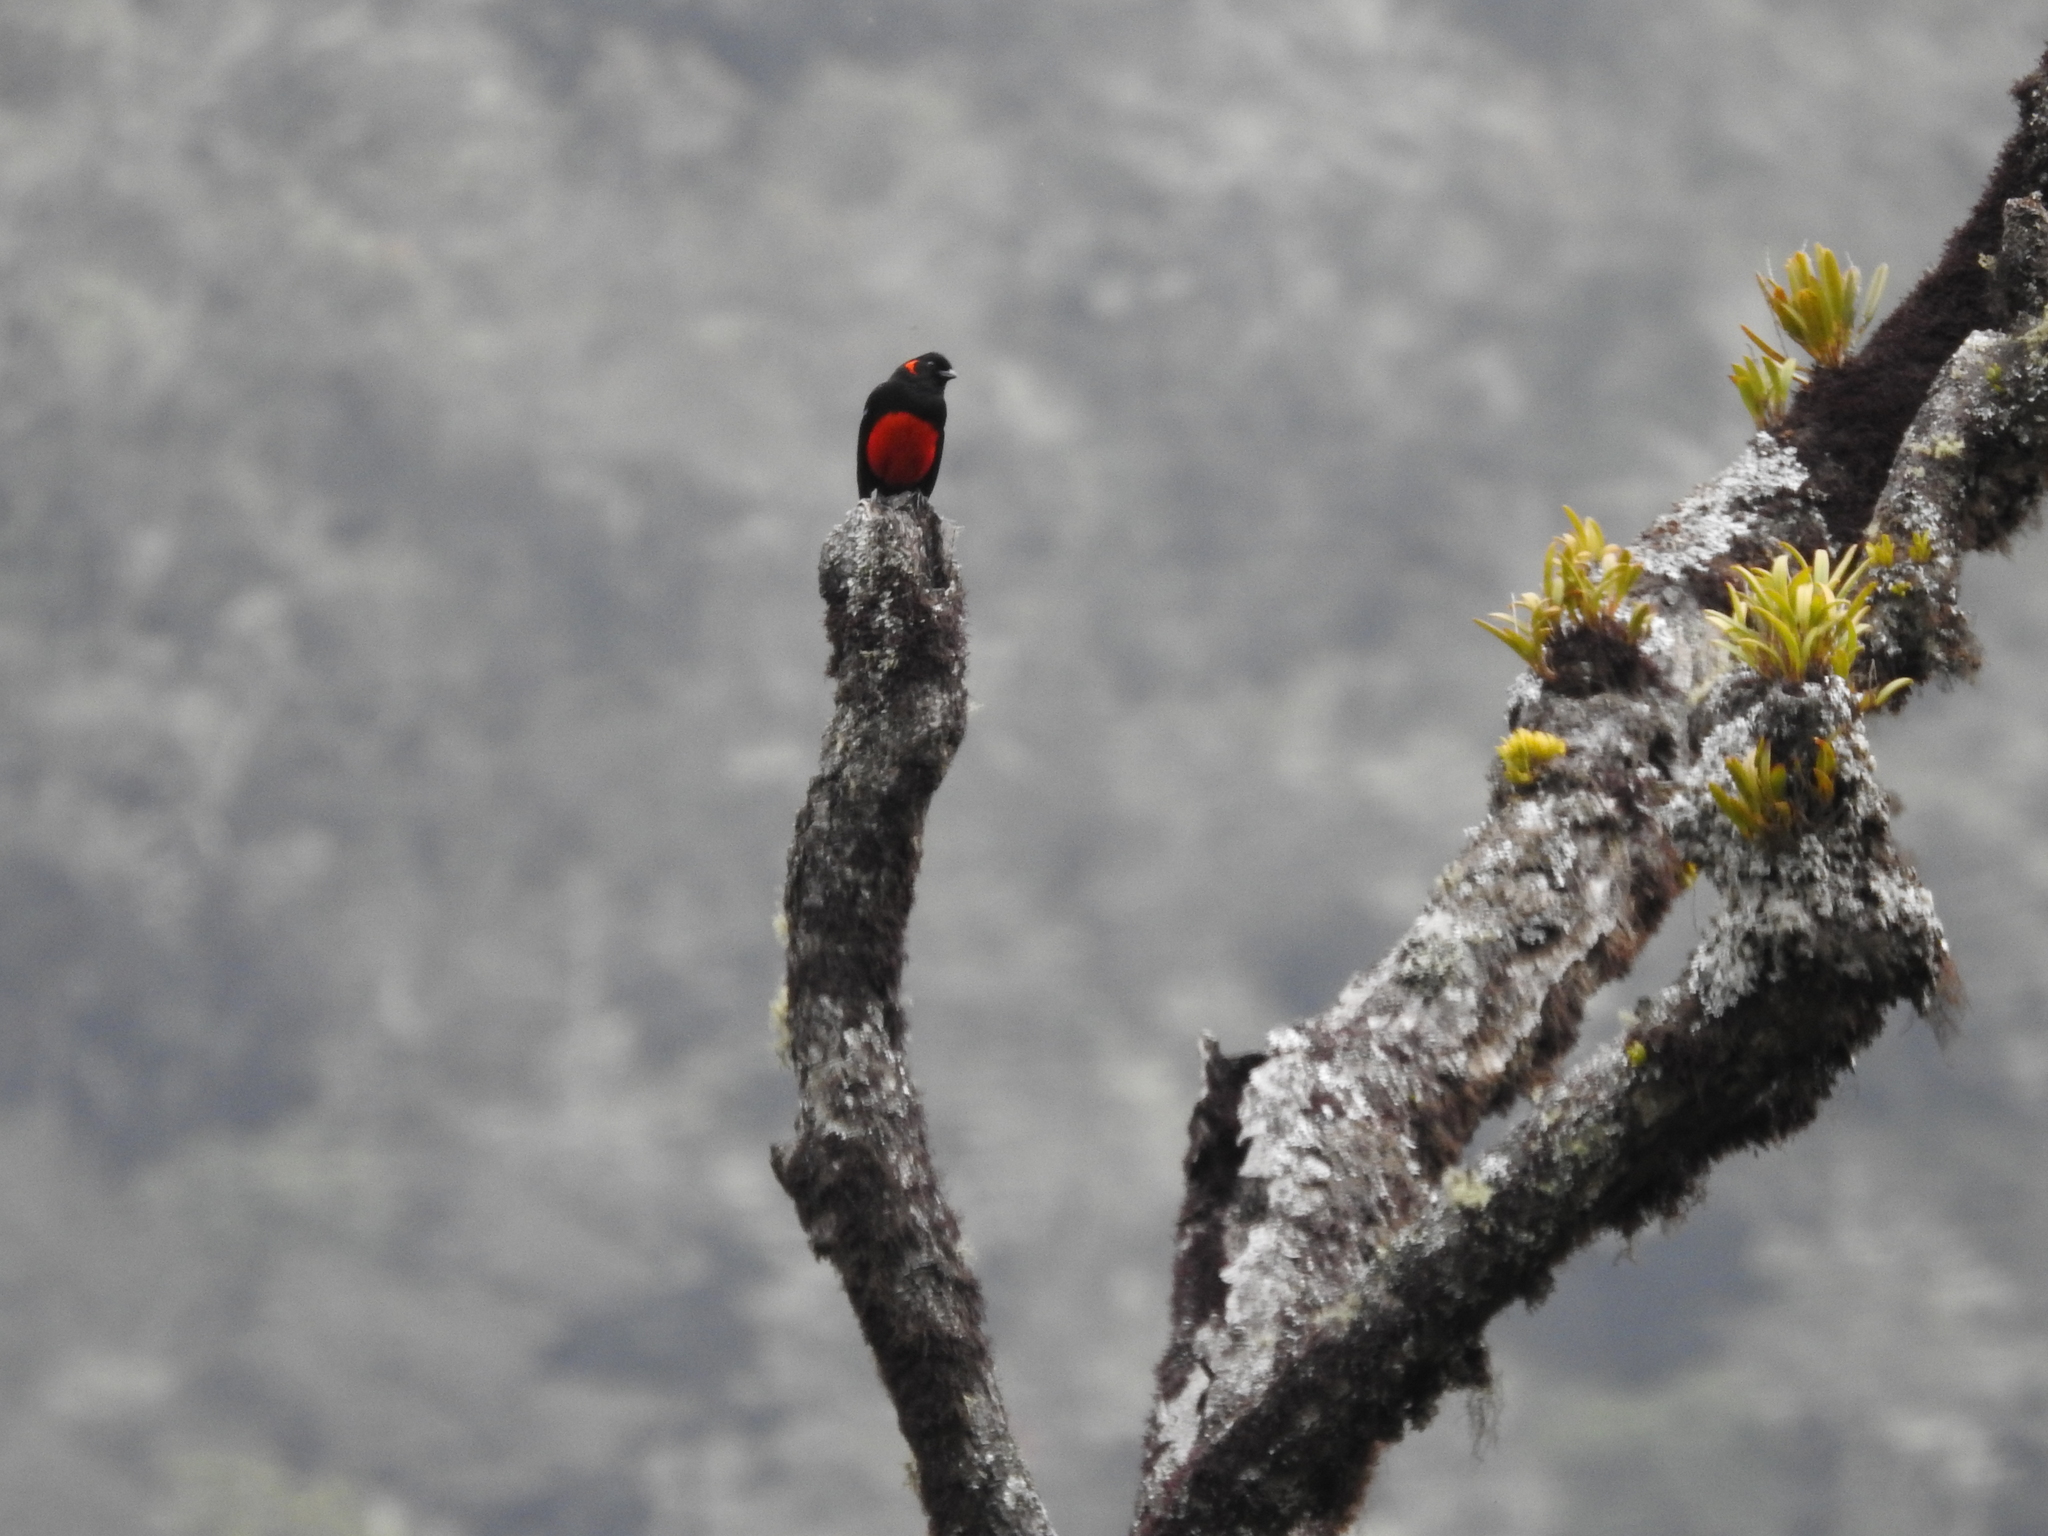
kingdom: Animalia
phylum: Chordata
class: Aves
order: Passeriformes
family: Thraupidae
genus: Anisognathus
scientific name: Anisognathus igniventris
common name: Scarlet-bellied mountain tanager
